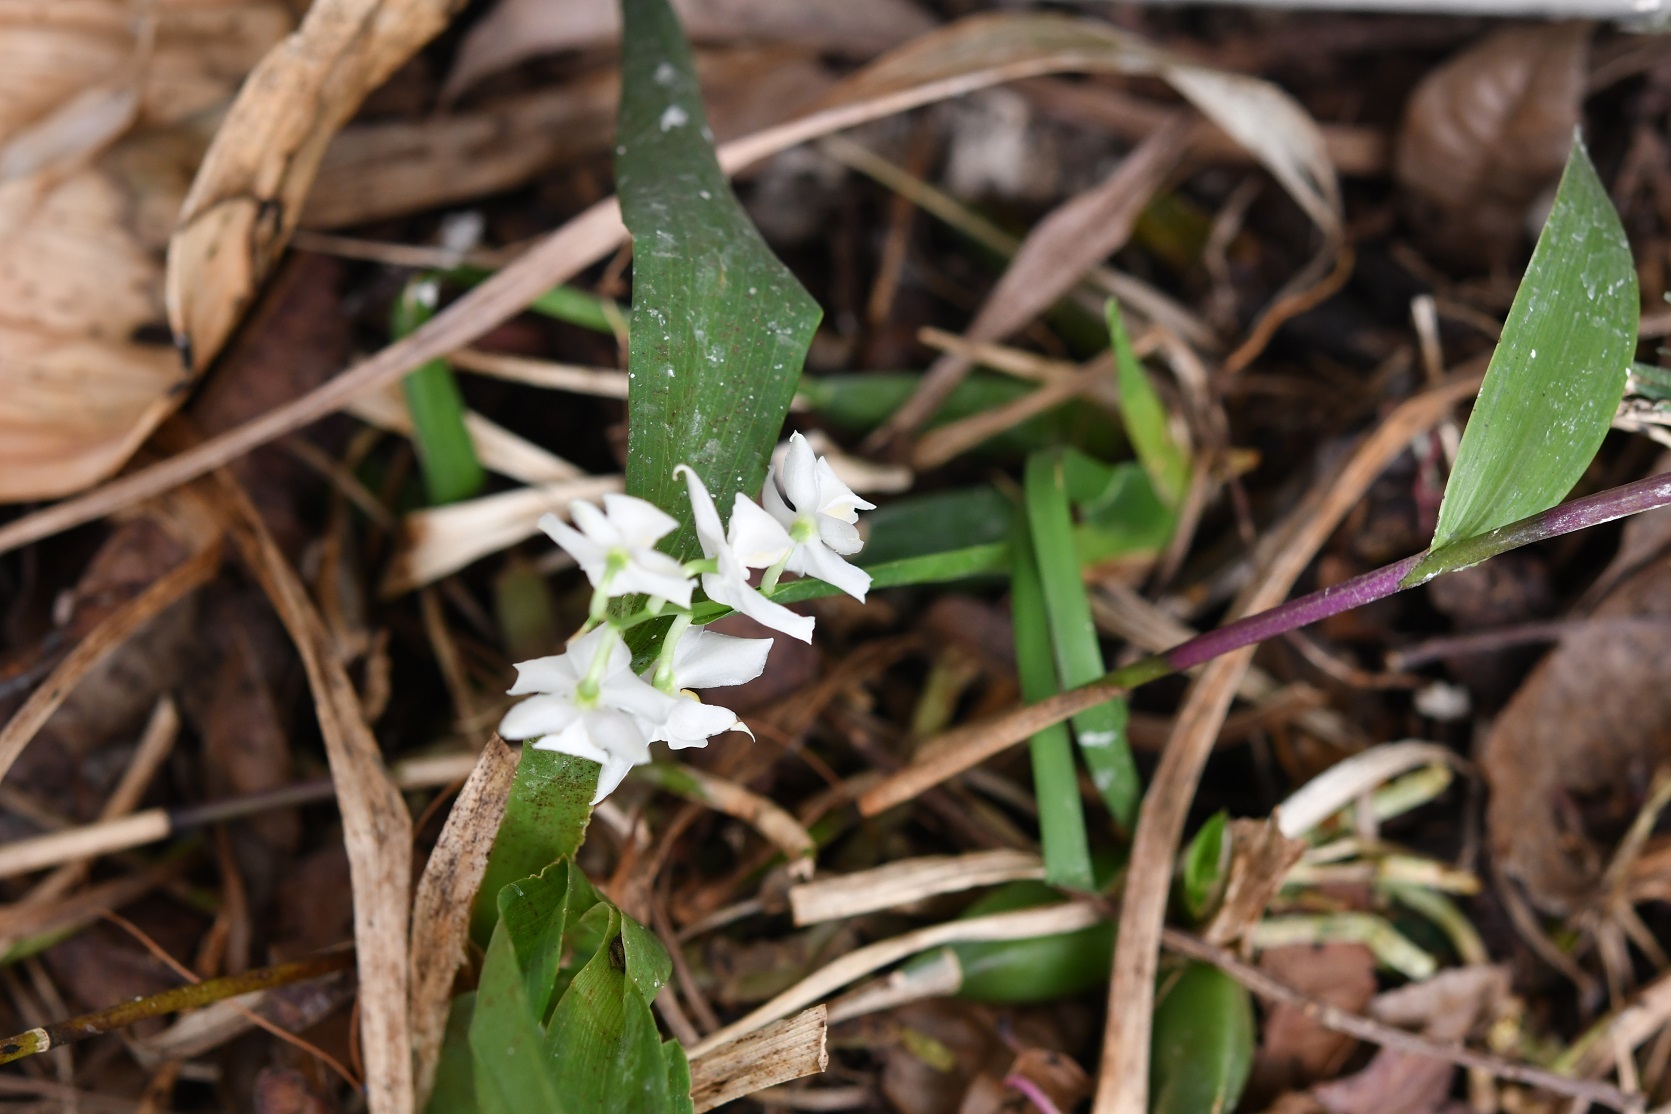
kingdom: Plantae
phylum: Tracheophyta
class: Liliopsida
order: Asparagales
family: Orchidaceae
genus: Cuitlauzina
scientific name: Cuitlauzina pulchella
